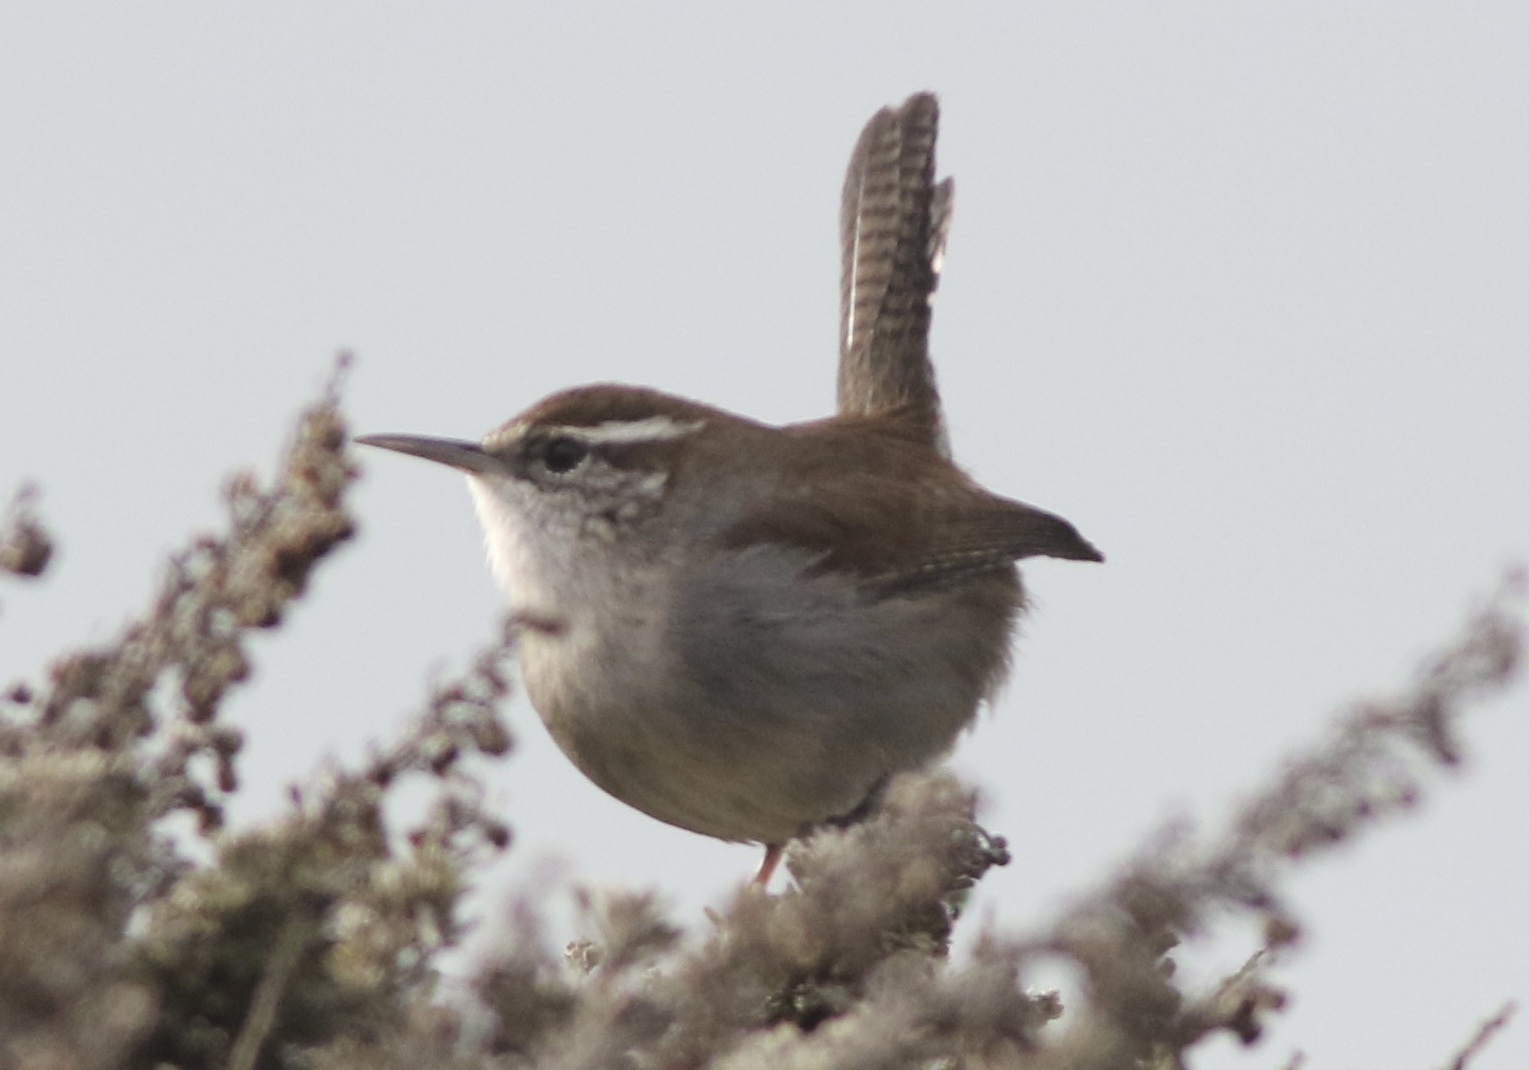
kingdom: Animalia
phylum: Chordata
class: Aves
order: Passeriformes
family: Troglodytidae
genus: Thryomanes
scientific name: Thryomanes bewickii
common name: Bewick's wren
